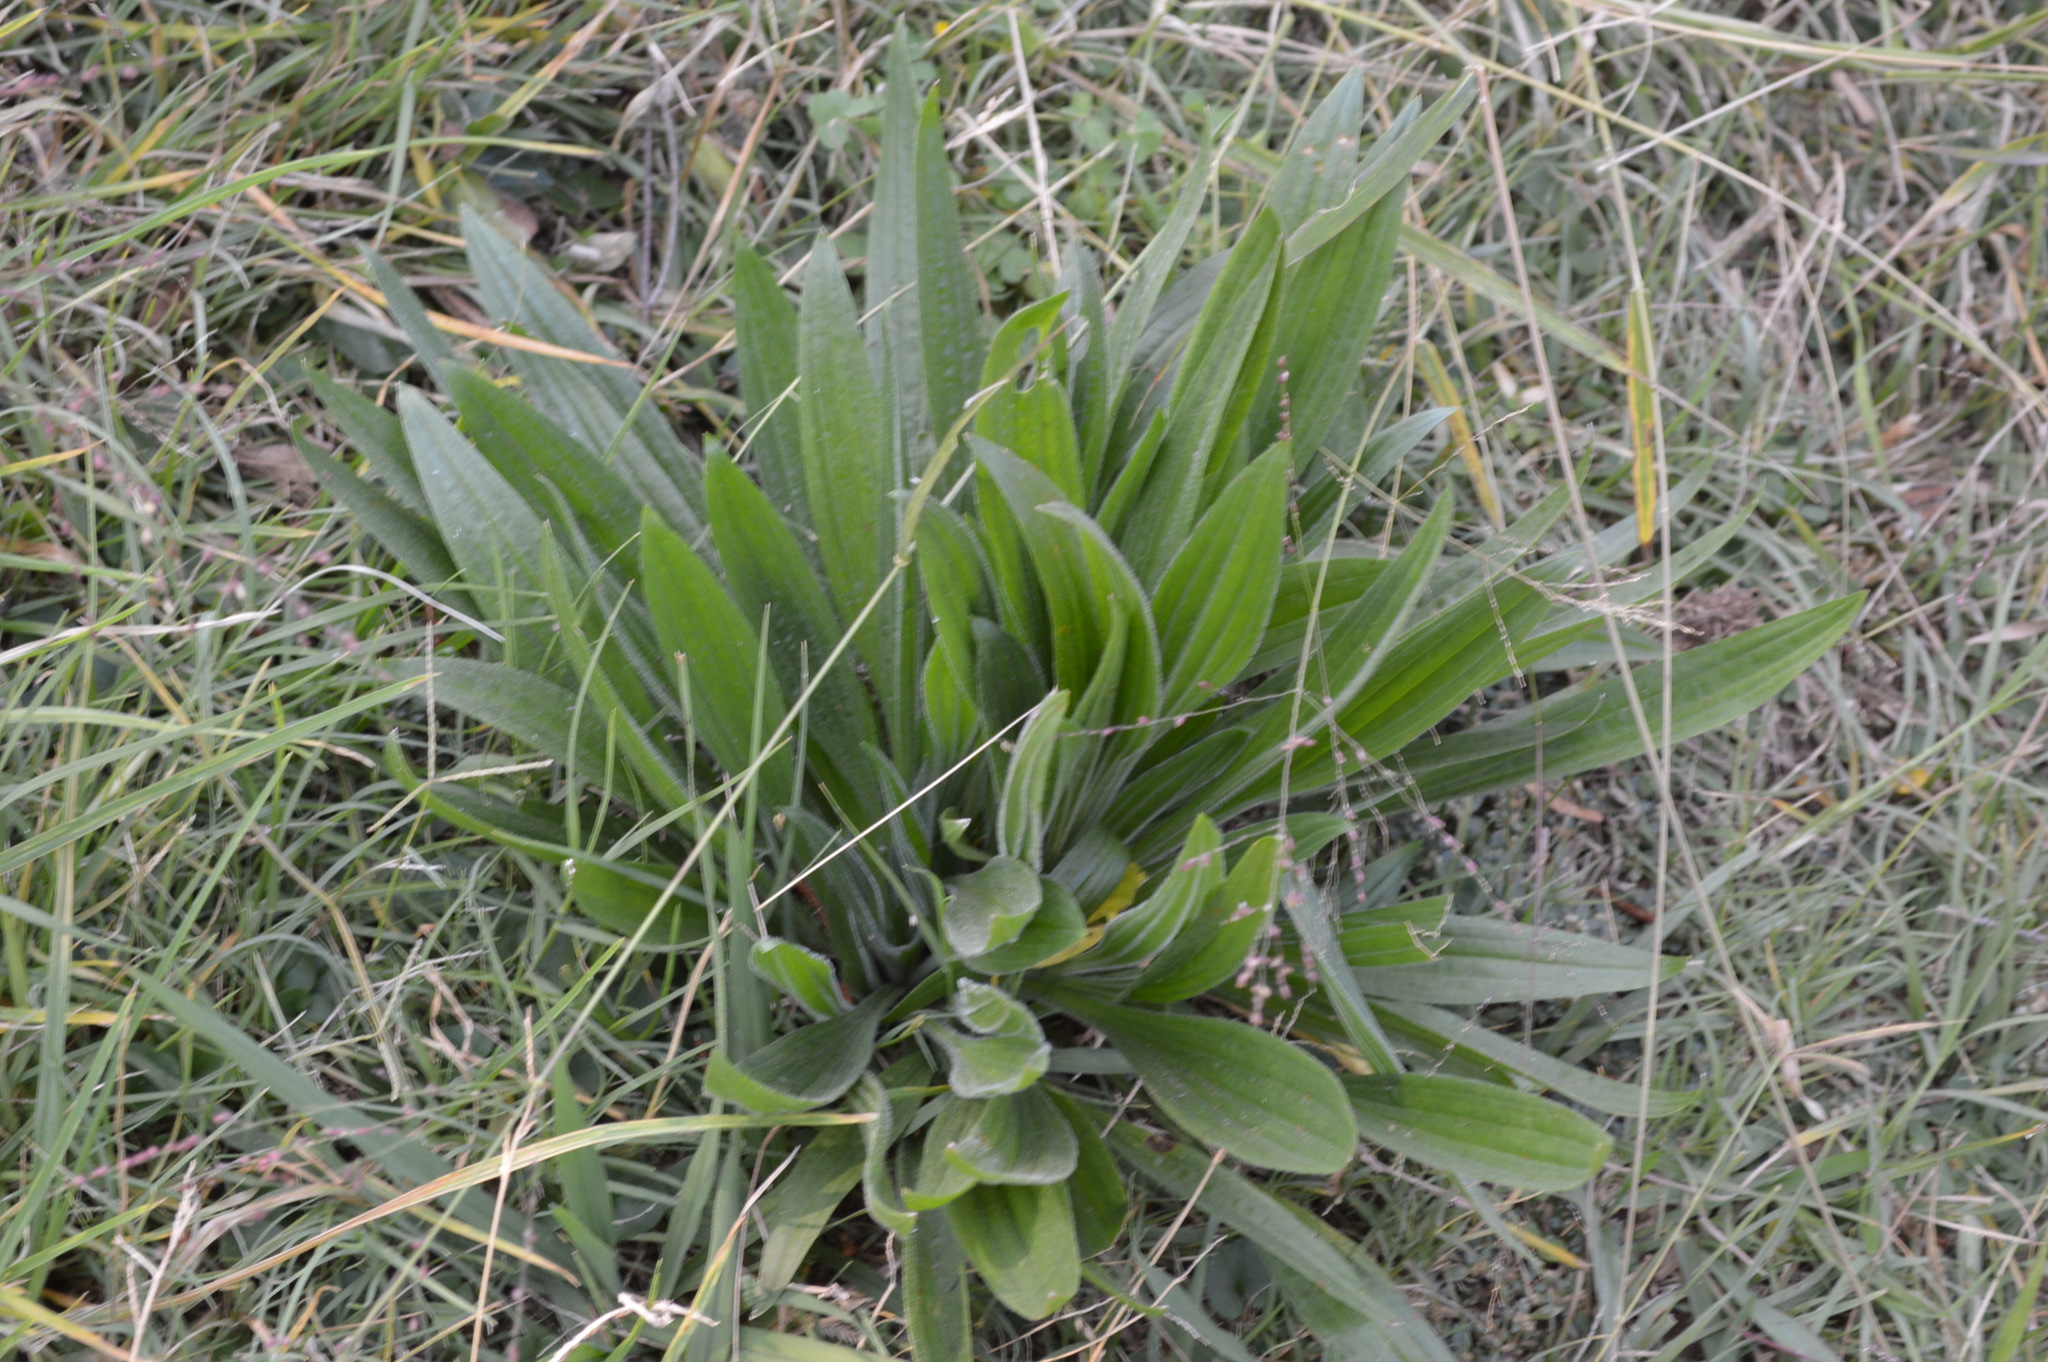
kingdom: Plantae
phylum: Tracheophyta
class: Magnoliopsida
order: Lamiales
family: Plantaginaceae
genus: Plantago
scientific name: Plantago lanceolata
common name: Ribwort plantain
